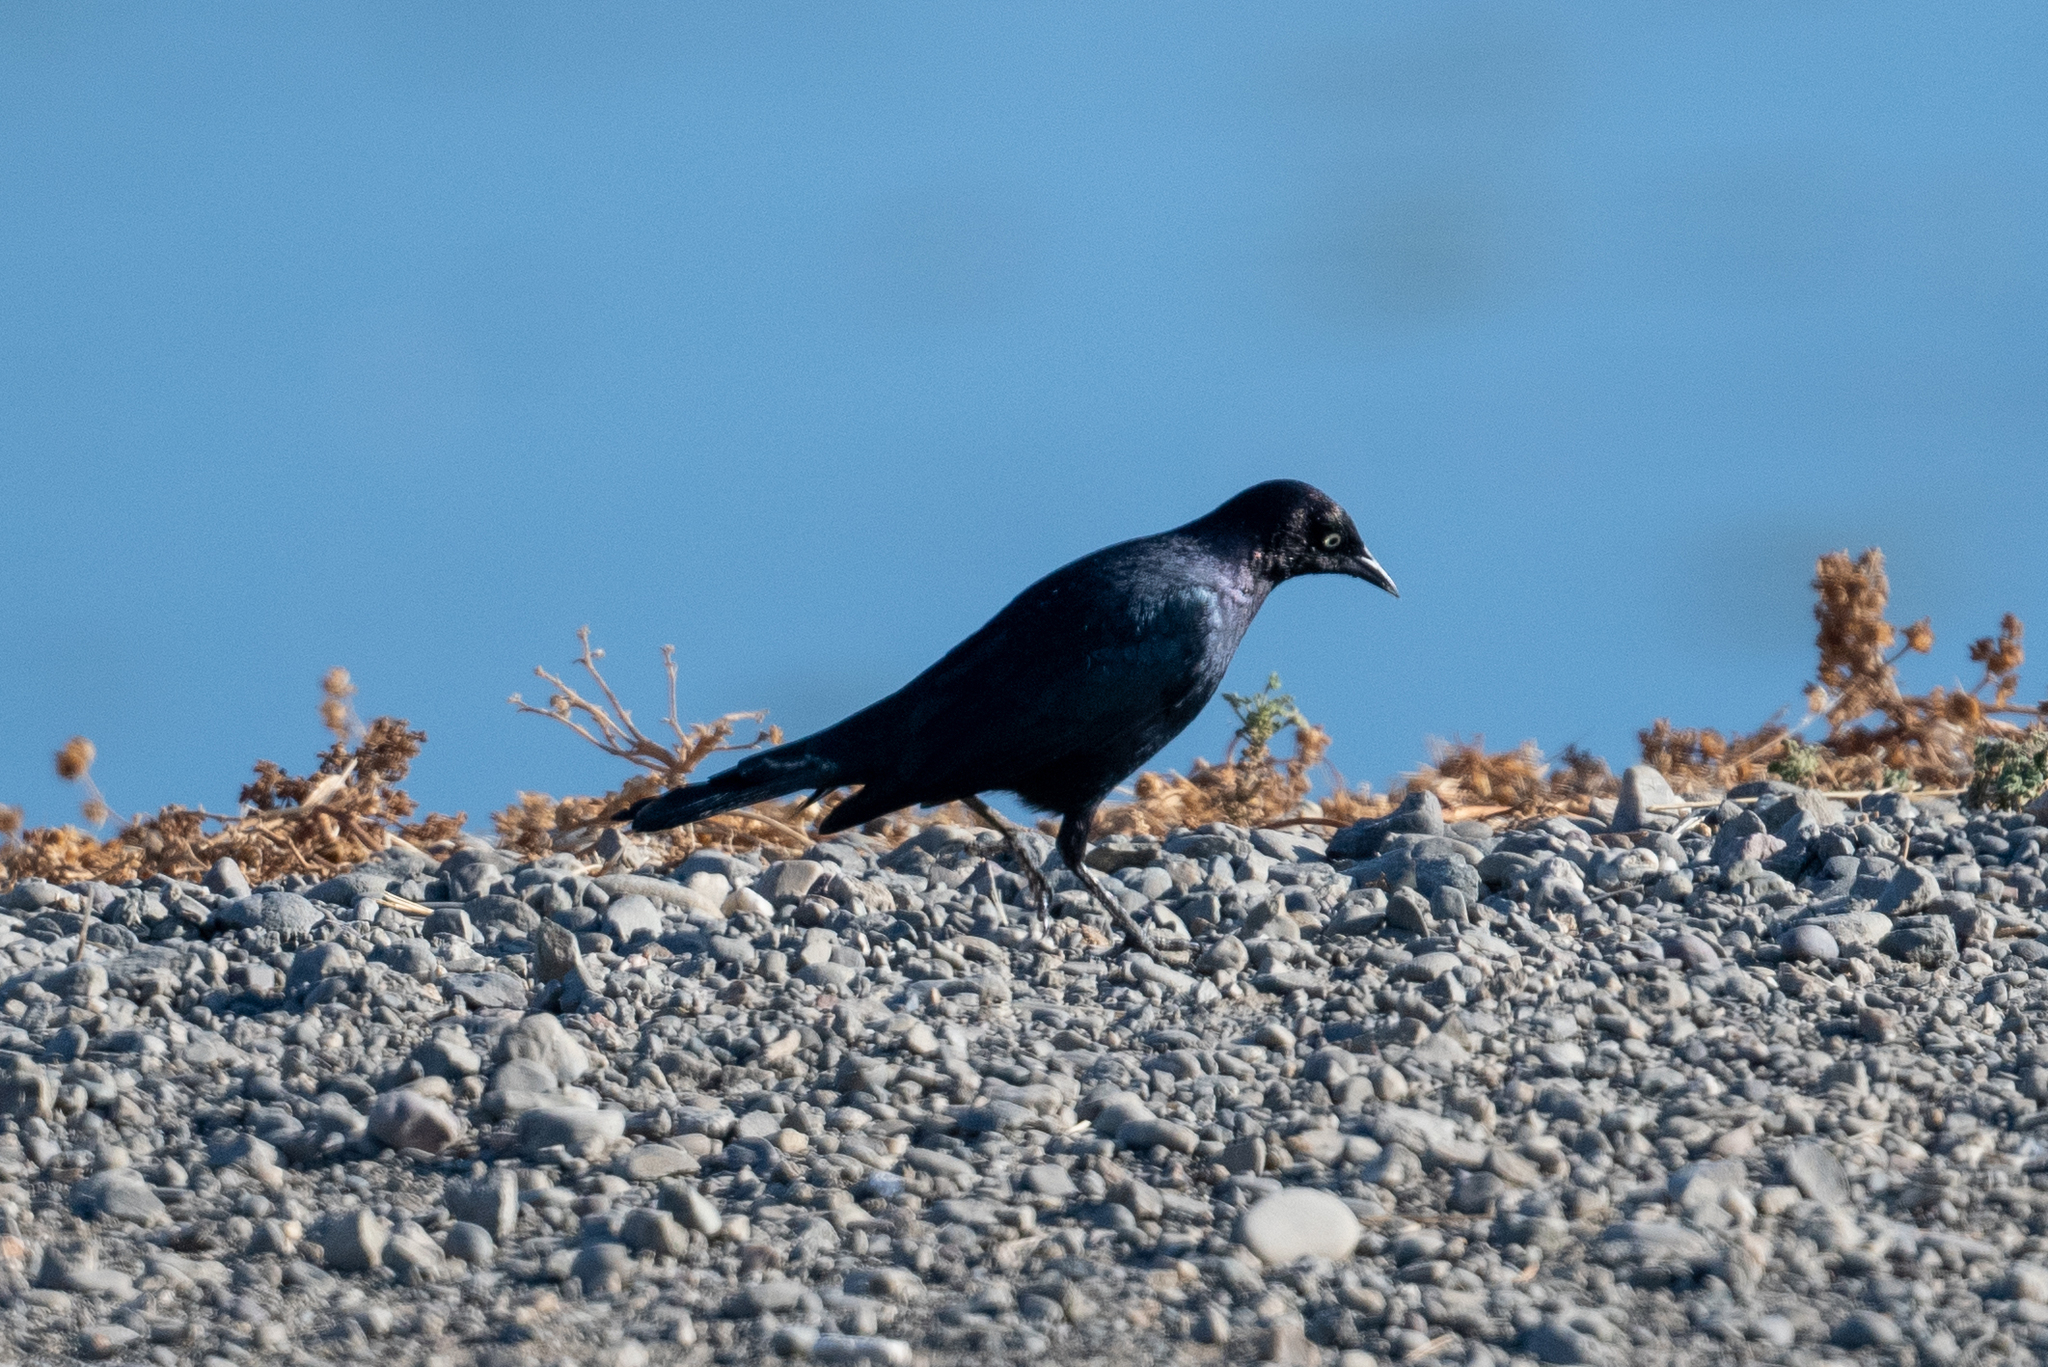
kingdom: Animalia
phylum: Chordata
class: Aves
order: Passeriformes
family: Icteridae
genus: Euphagus
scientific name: Euphagus cyanocephalus
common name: Brewer's blackbird
